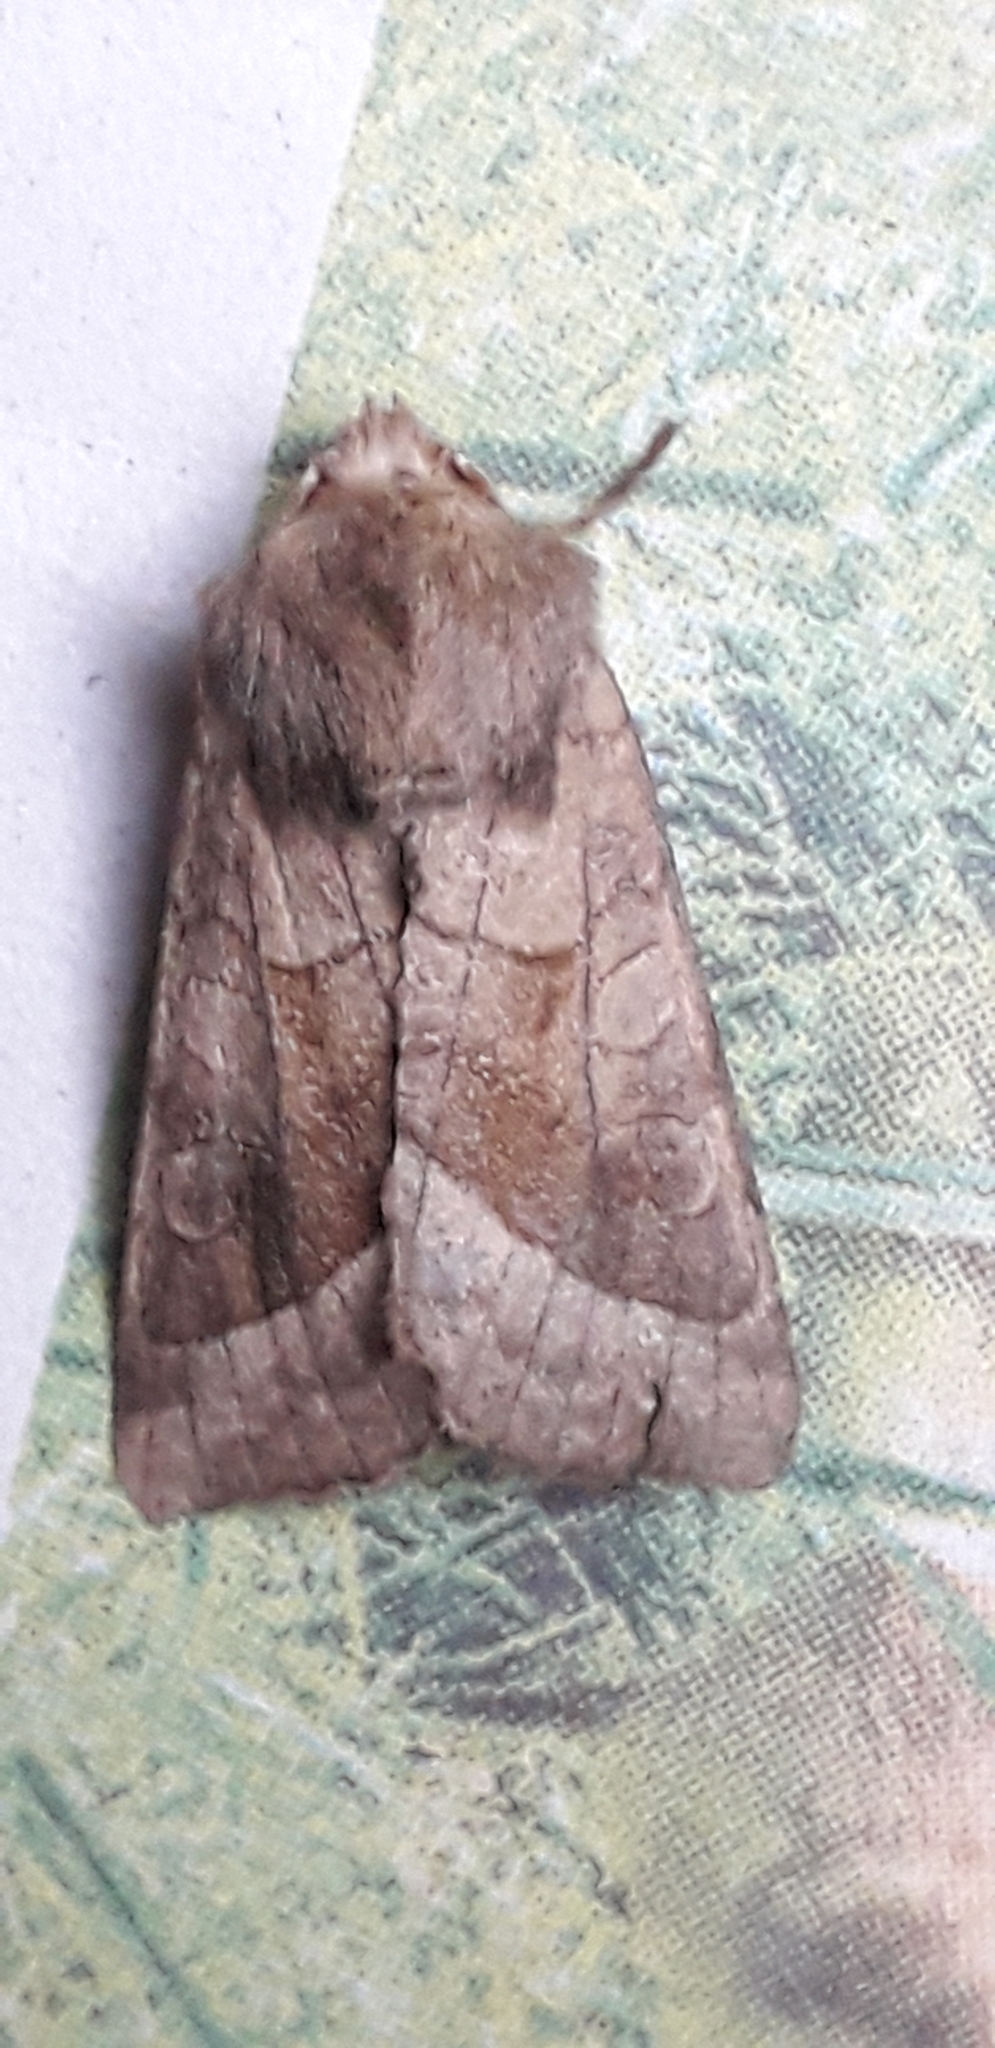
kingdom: Animalia
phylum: Arthropoda
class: Insecta
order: Lepidoptera
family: Noctuidae
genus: Hydraecia
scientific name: Hydraecia micacea
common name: Rosy rustic
